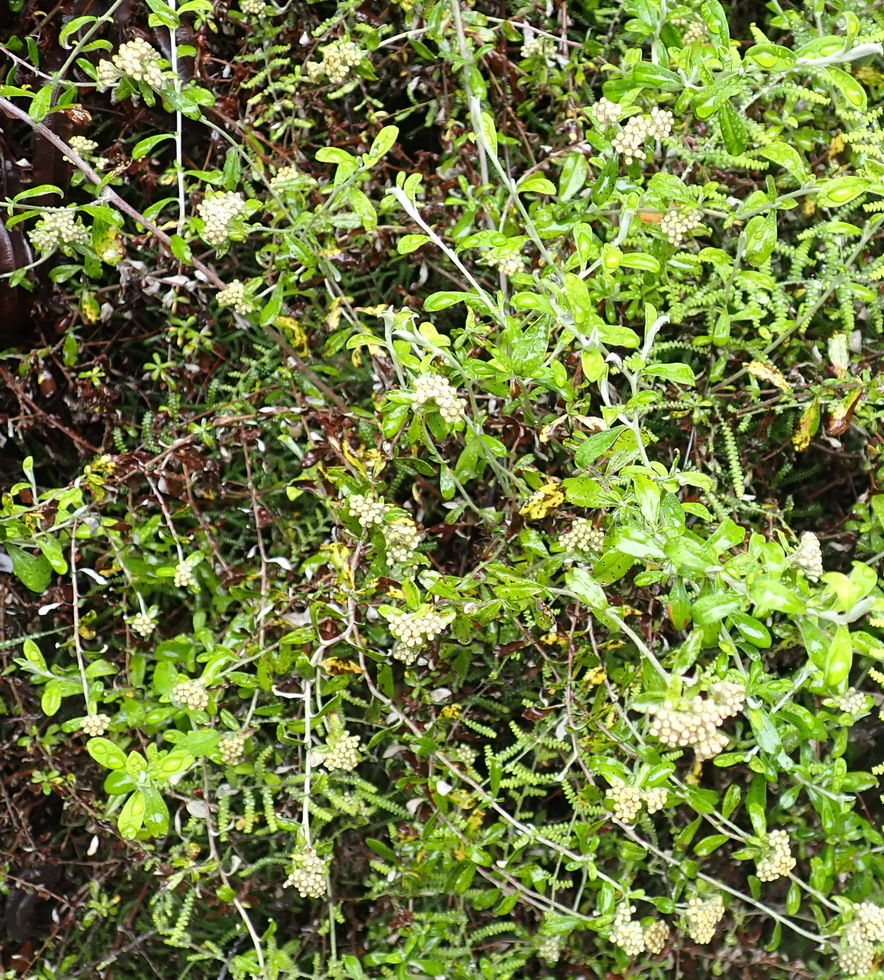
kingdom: Plantae
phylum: Tracheophyta
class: Magnoliopsida
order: Asterales
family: Asteraceae
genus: Plecostachys
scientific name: Plecostachys polifolia
